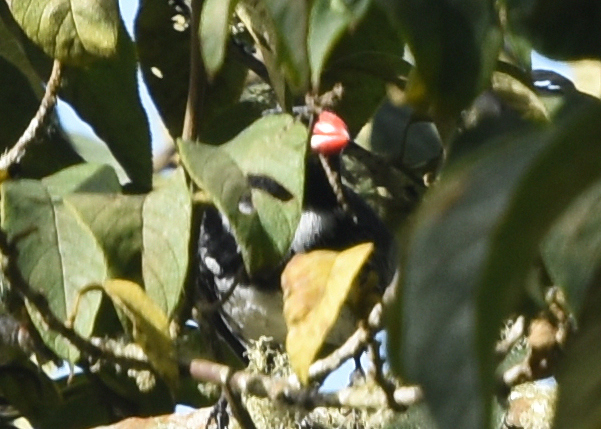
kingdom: Animalia
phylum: Chordata
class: Aves
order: Passeriformes
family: Thraupidae
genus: Saltator
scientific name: Saltator cinctus
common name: Masked saltator
